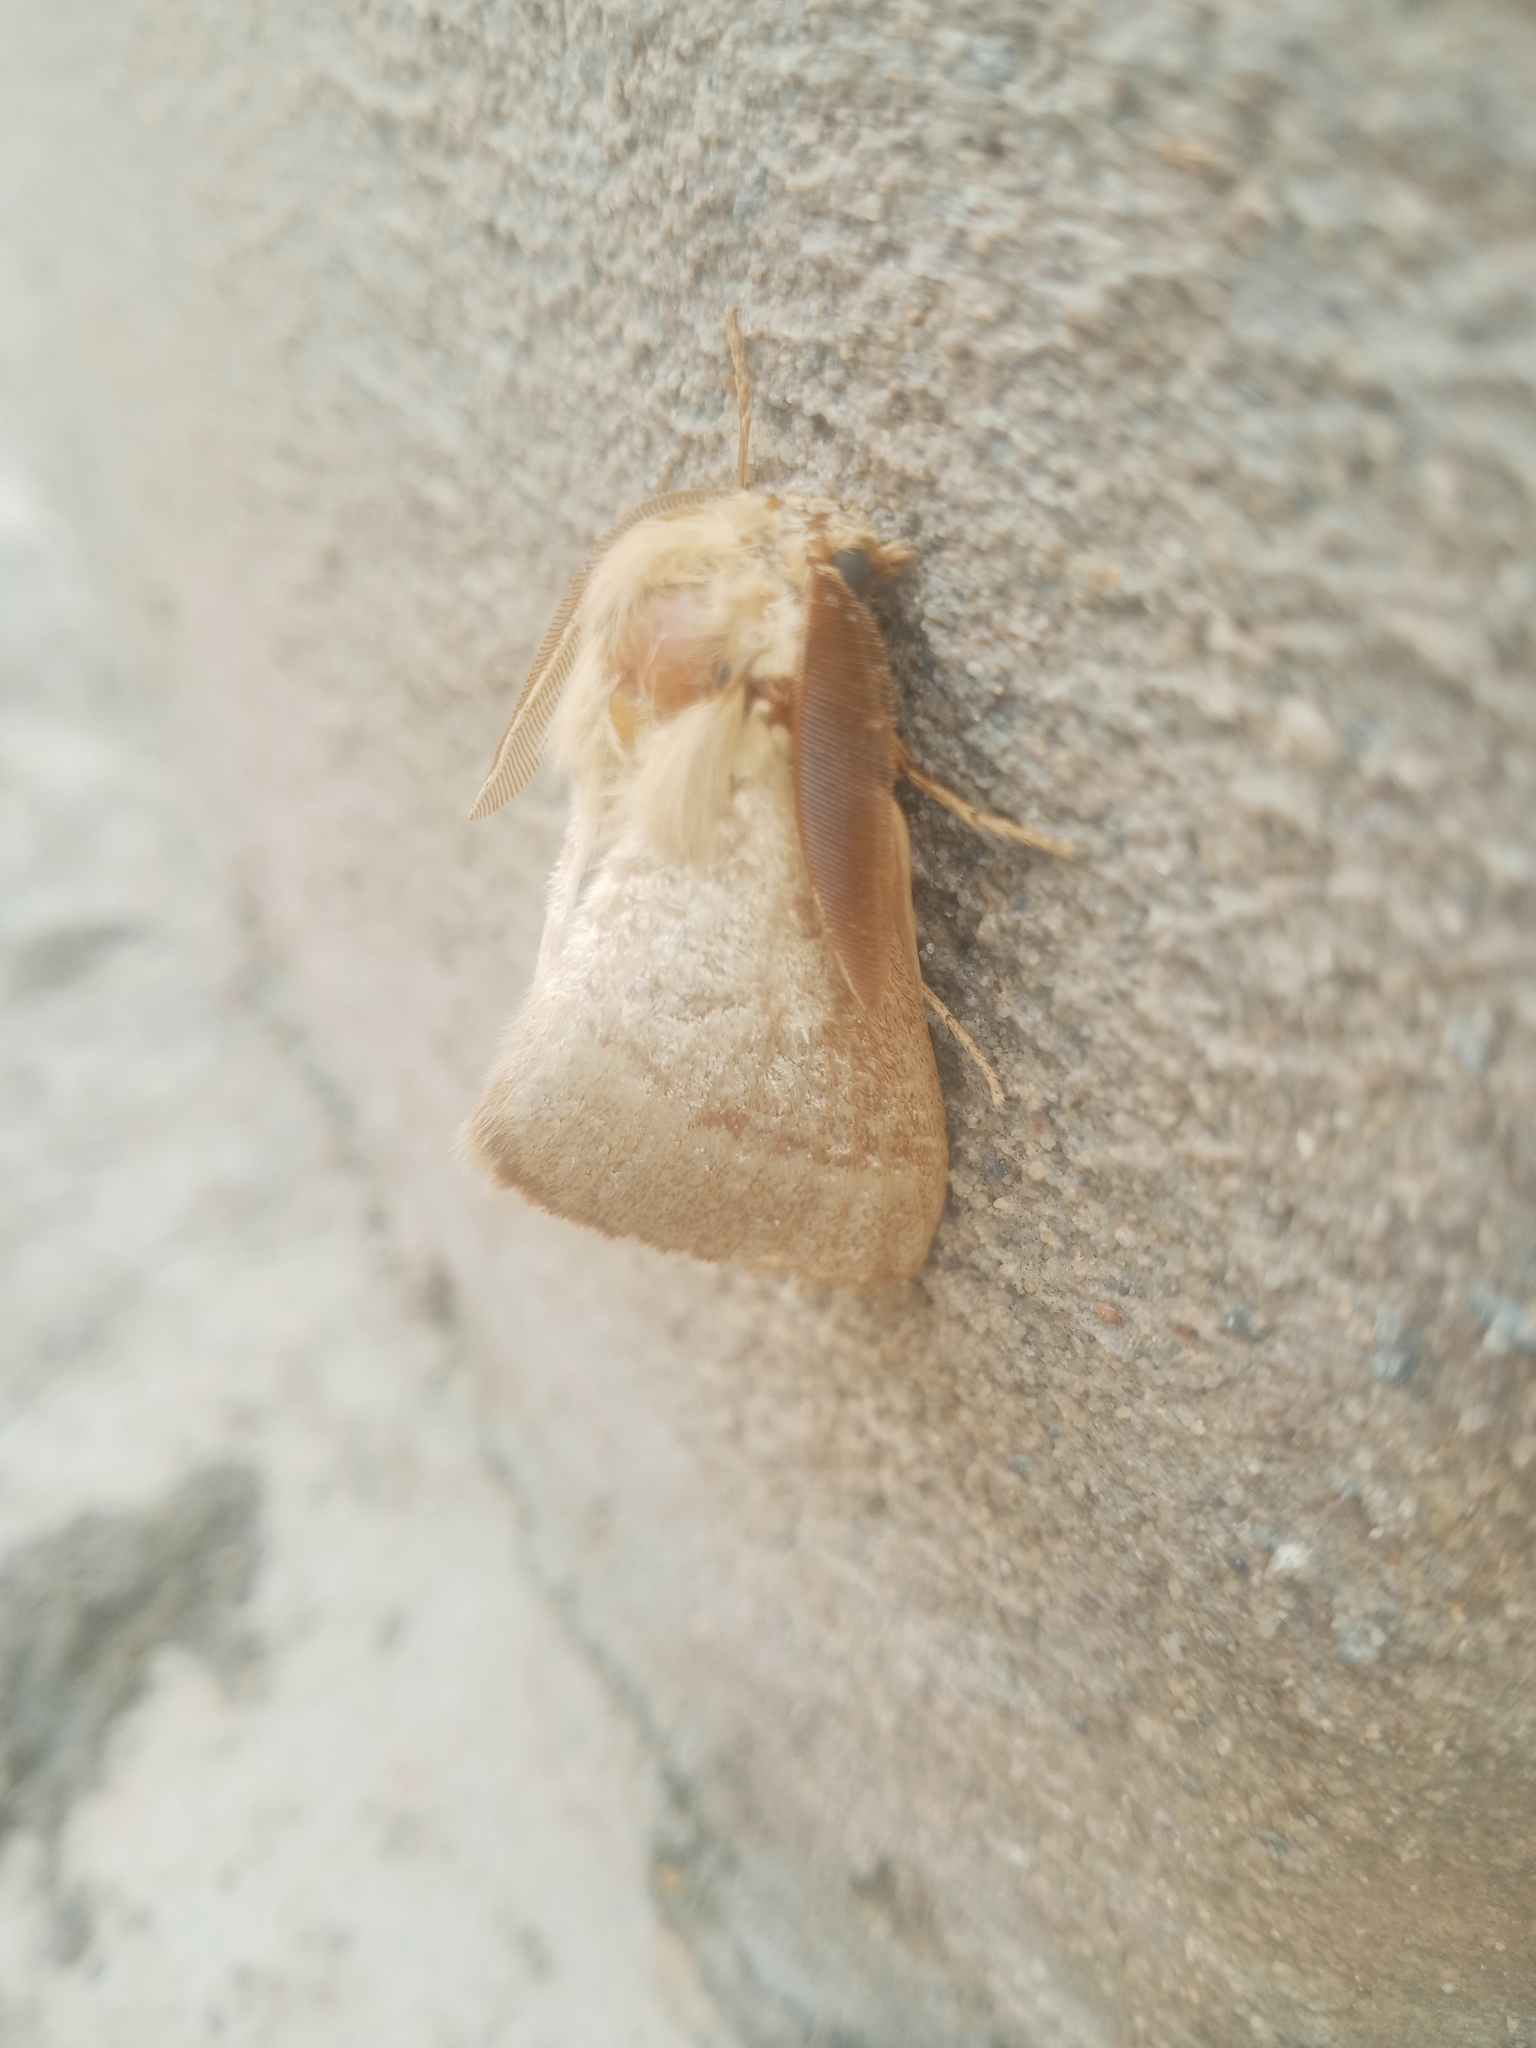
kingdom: Animalia
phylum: Arthropoda
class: Insecta
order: Lepidoptera
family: Lasiocampidae
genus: Lasiocampa
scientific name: Lasiocampa trifolii
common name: Grass eggar
